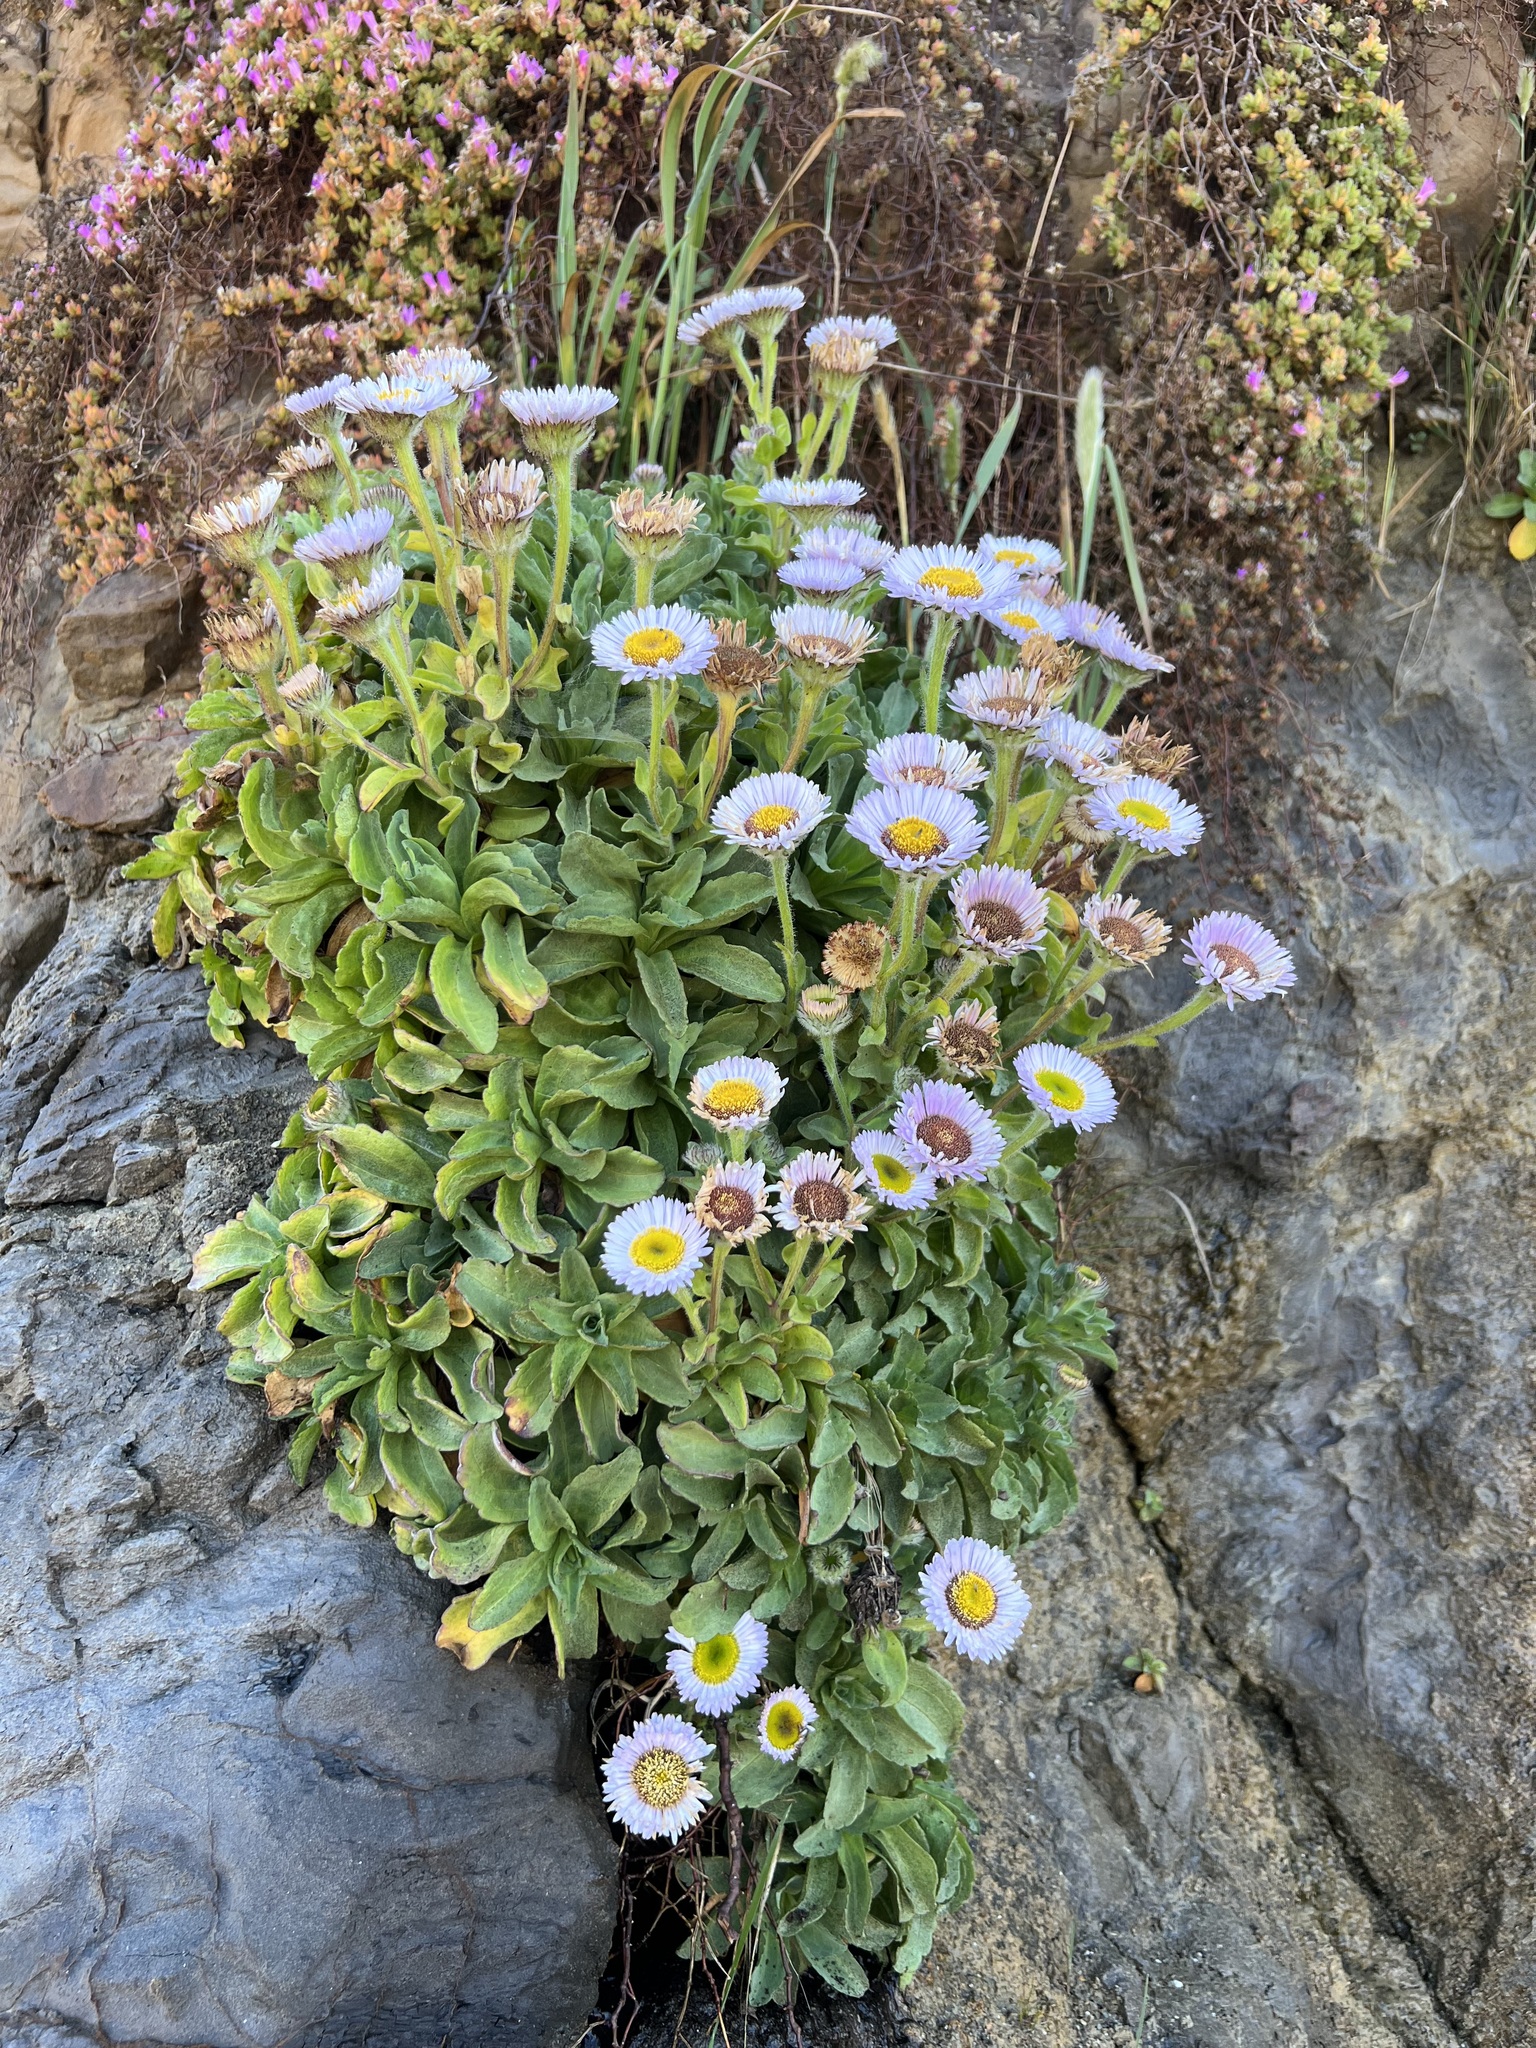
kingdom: Plantae
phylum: Tracheophyta
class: Magnoliopsida
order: Asterales
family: Asteraceae
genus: Erigeron
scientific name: Erigeron glaucus
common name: Seaside daisy
